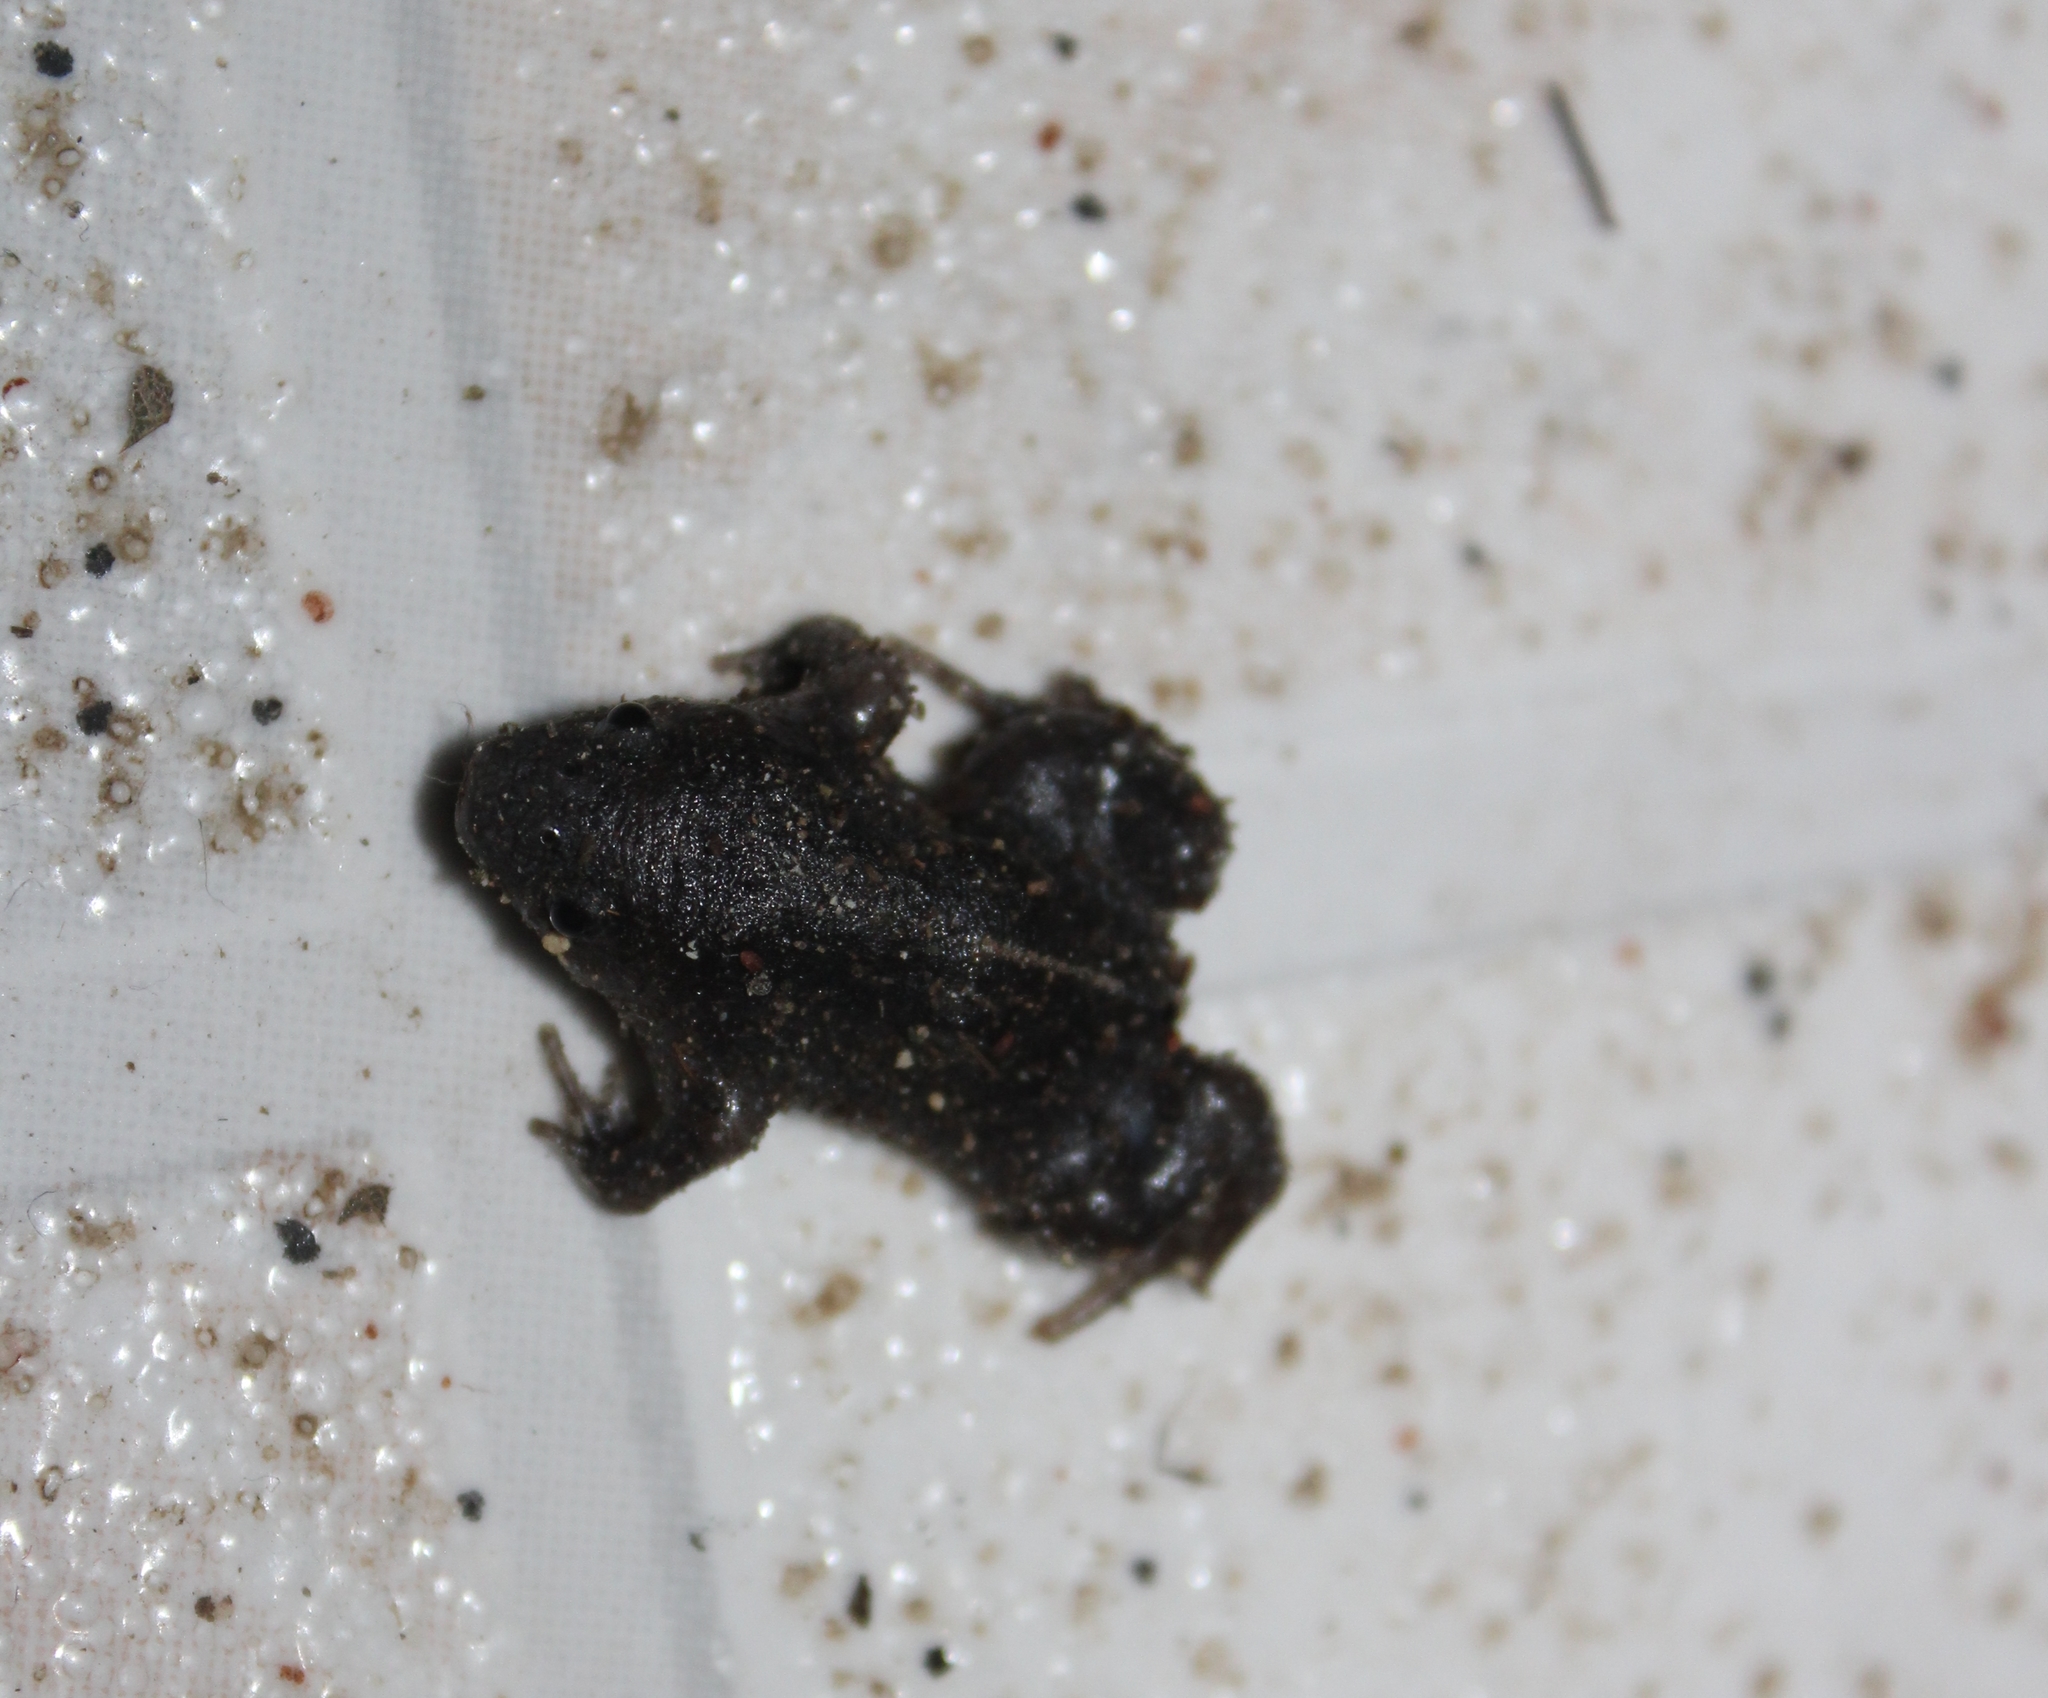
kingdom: Animalia
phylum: Chordata
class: Amphibia
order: Anura
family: Rhinophrynidae
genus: Rhinophrynus
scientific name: Rhinophrynus dorsalis
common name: Mexican burrowing toad
